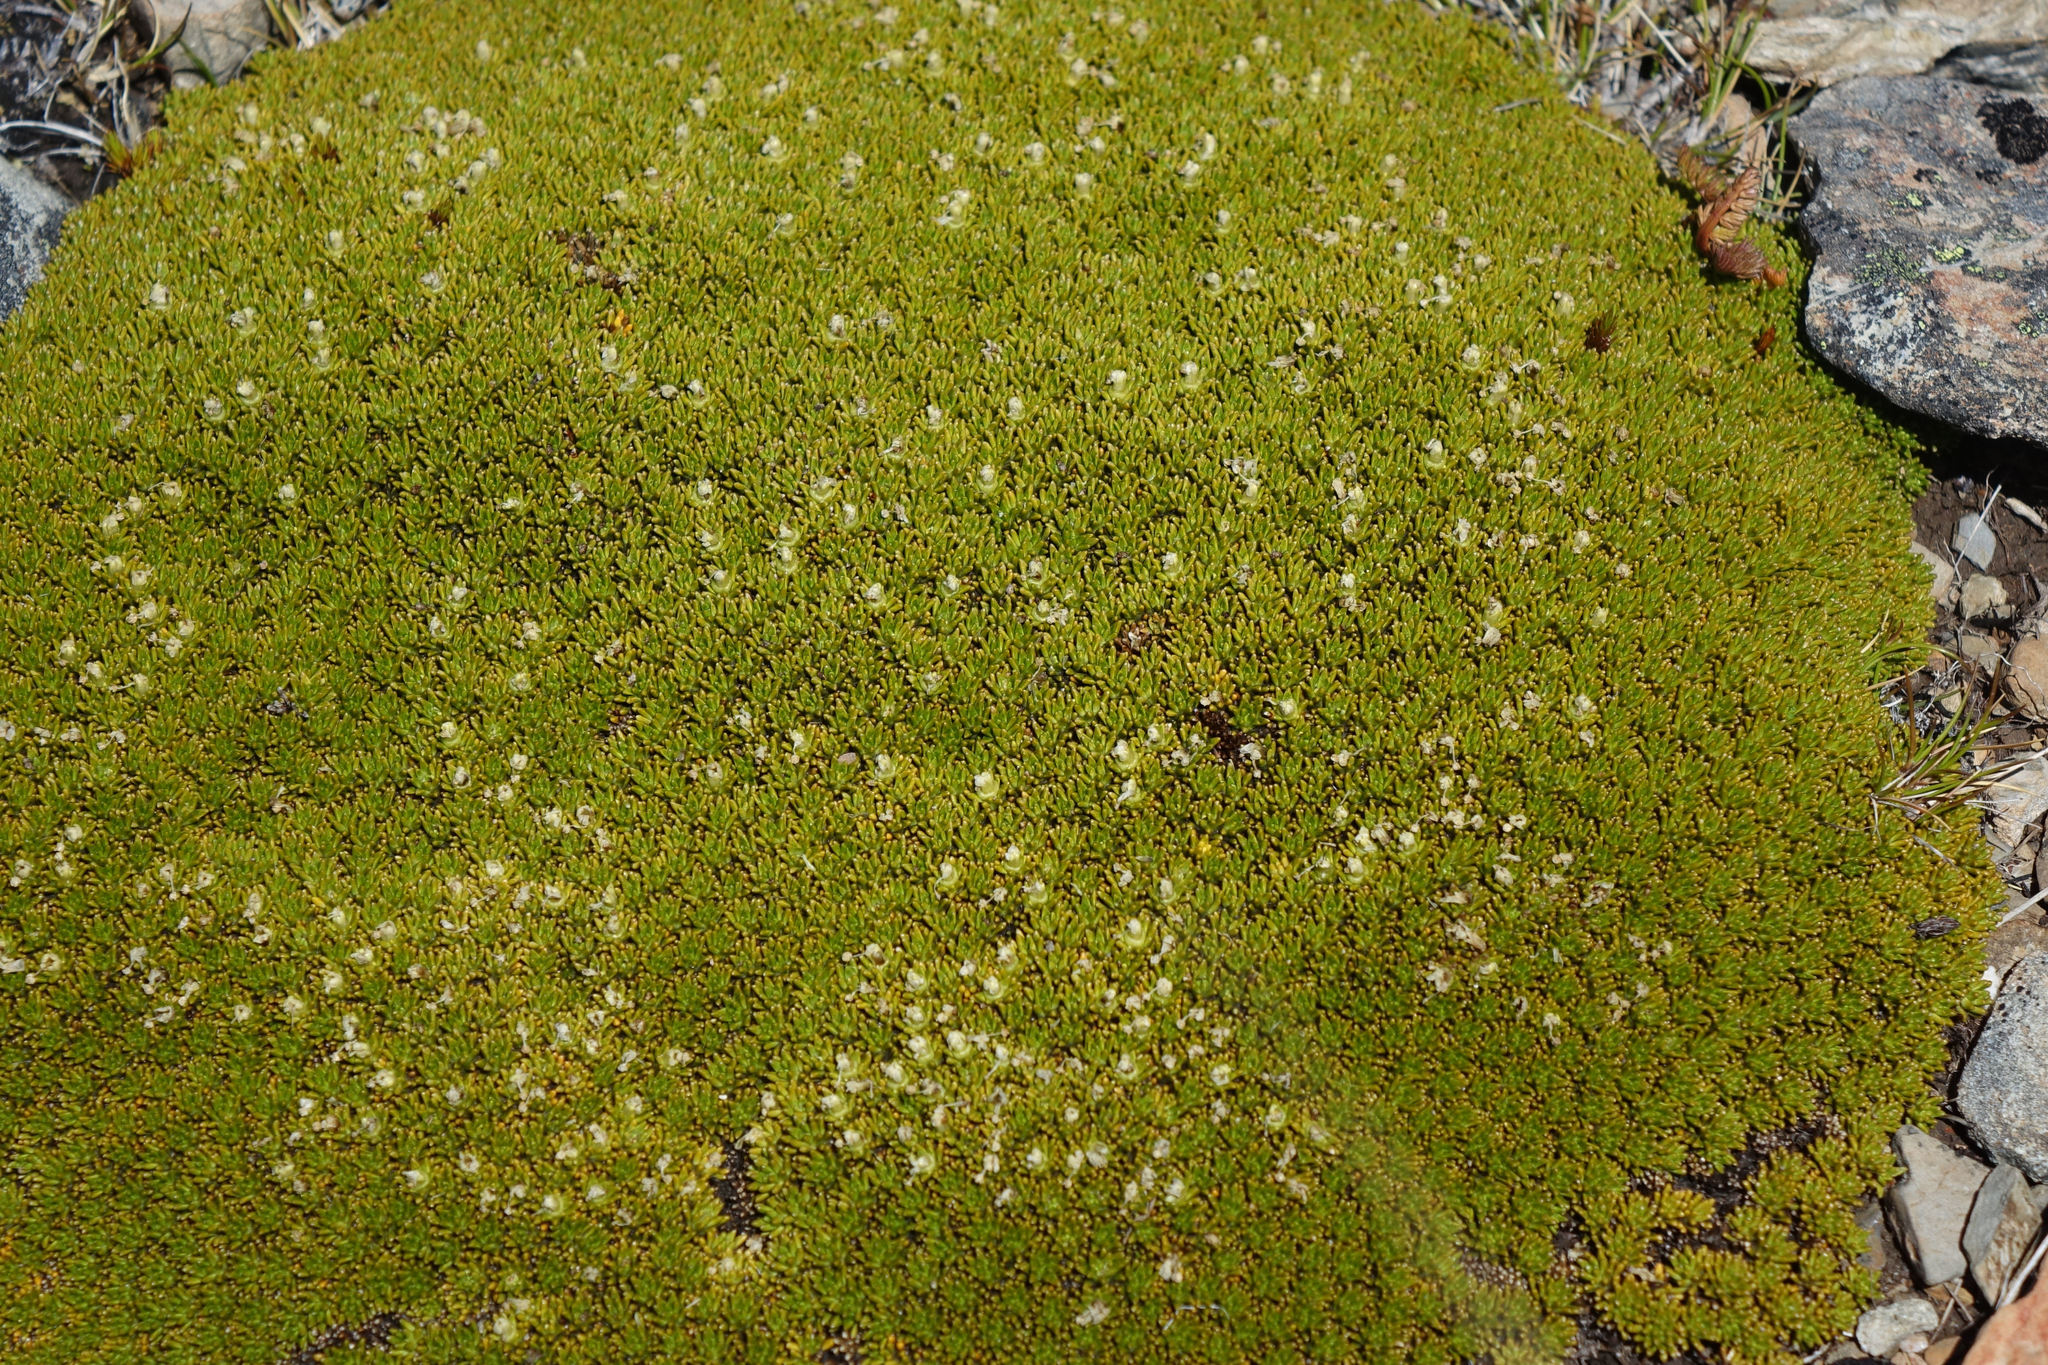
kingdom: Plantae
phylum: Tracheophyta
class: Magnoliopsida
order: Asterales
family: Stylidiaceae
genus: Phyllachne
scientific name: Phyllachne colensoi
